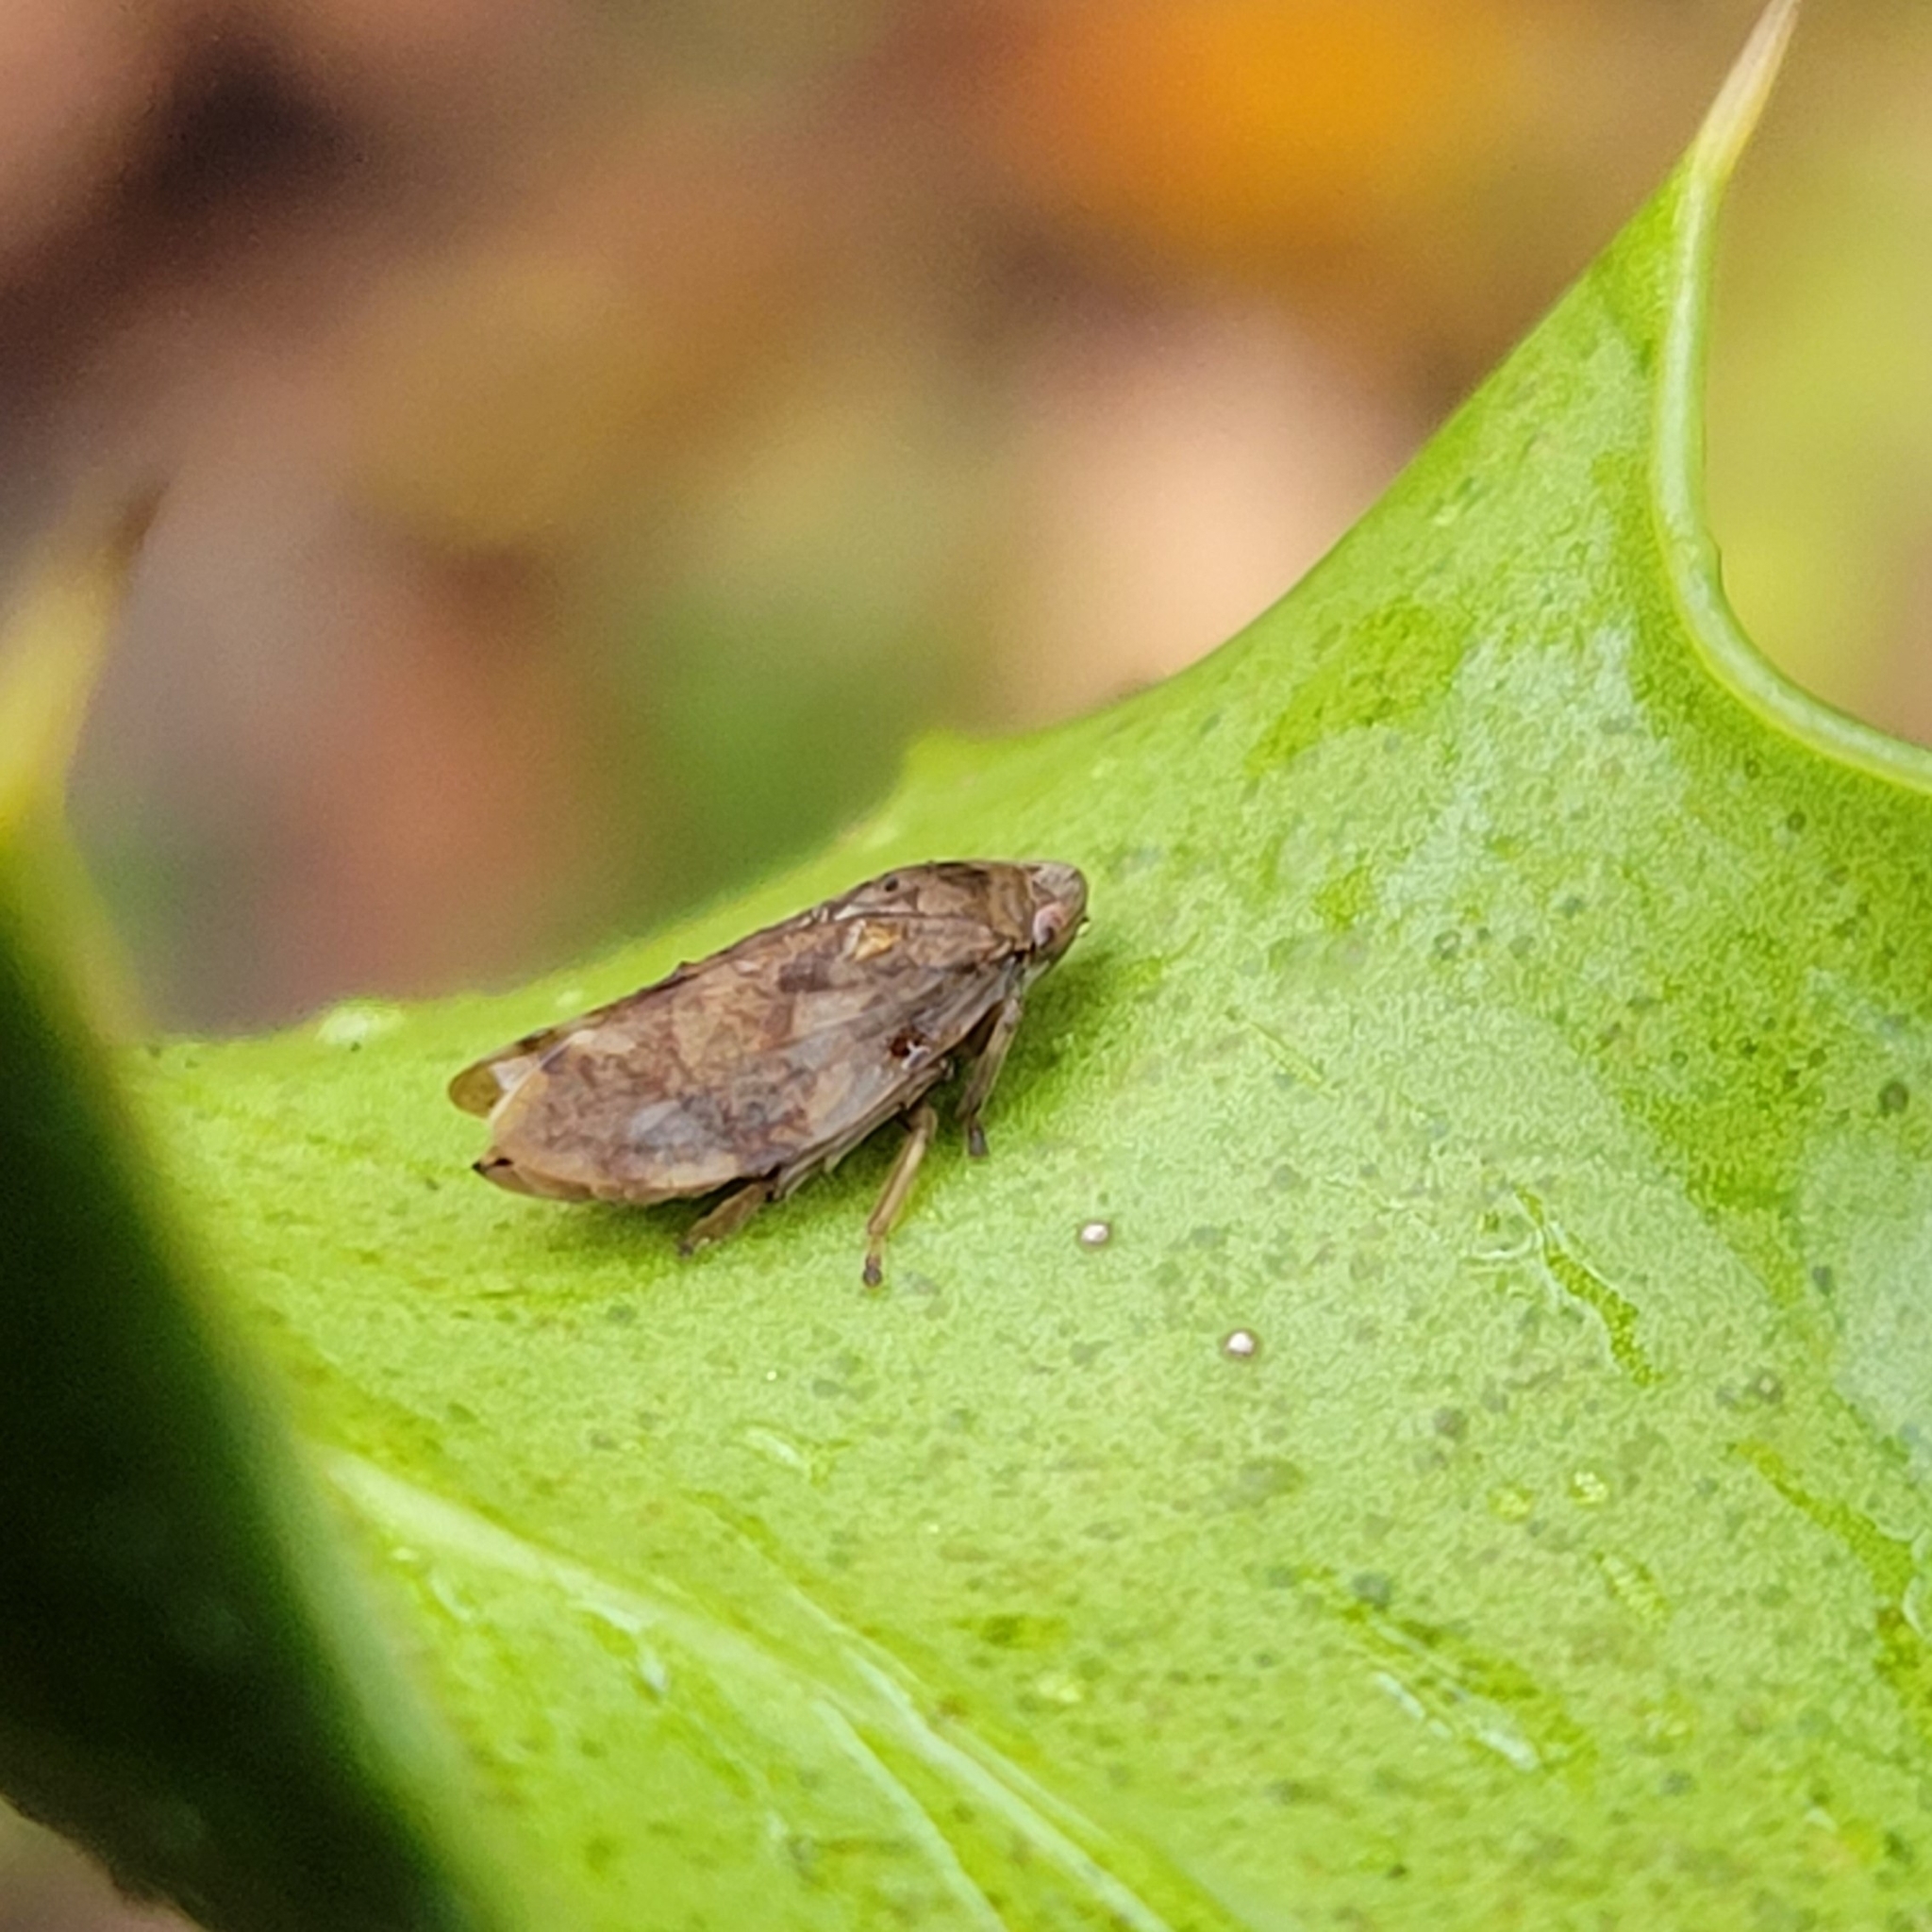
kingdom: Animalia
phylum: Arthropoda
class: Insecta
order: Hemiptera
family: Aphrophoridae
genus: Philaenus
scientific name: Philaenus spumarius
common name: Meadow spittlebug
